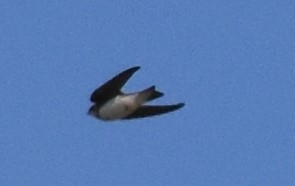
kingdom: Animalia
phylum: Chordata
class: Aves
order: Passeriformes
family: Hirundinidae
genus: Riparia
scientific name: Riparia riparia
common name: Sand martin
